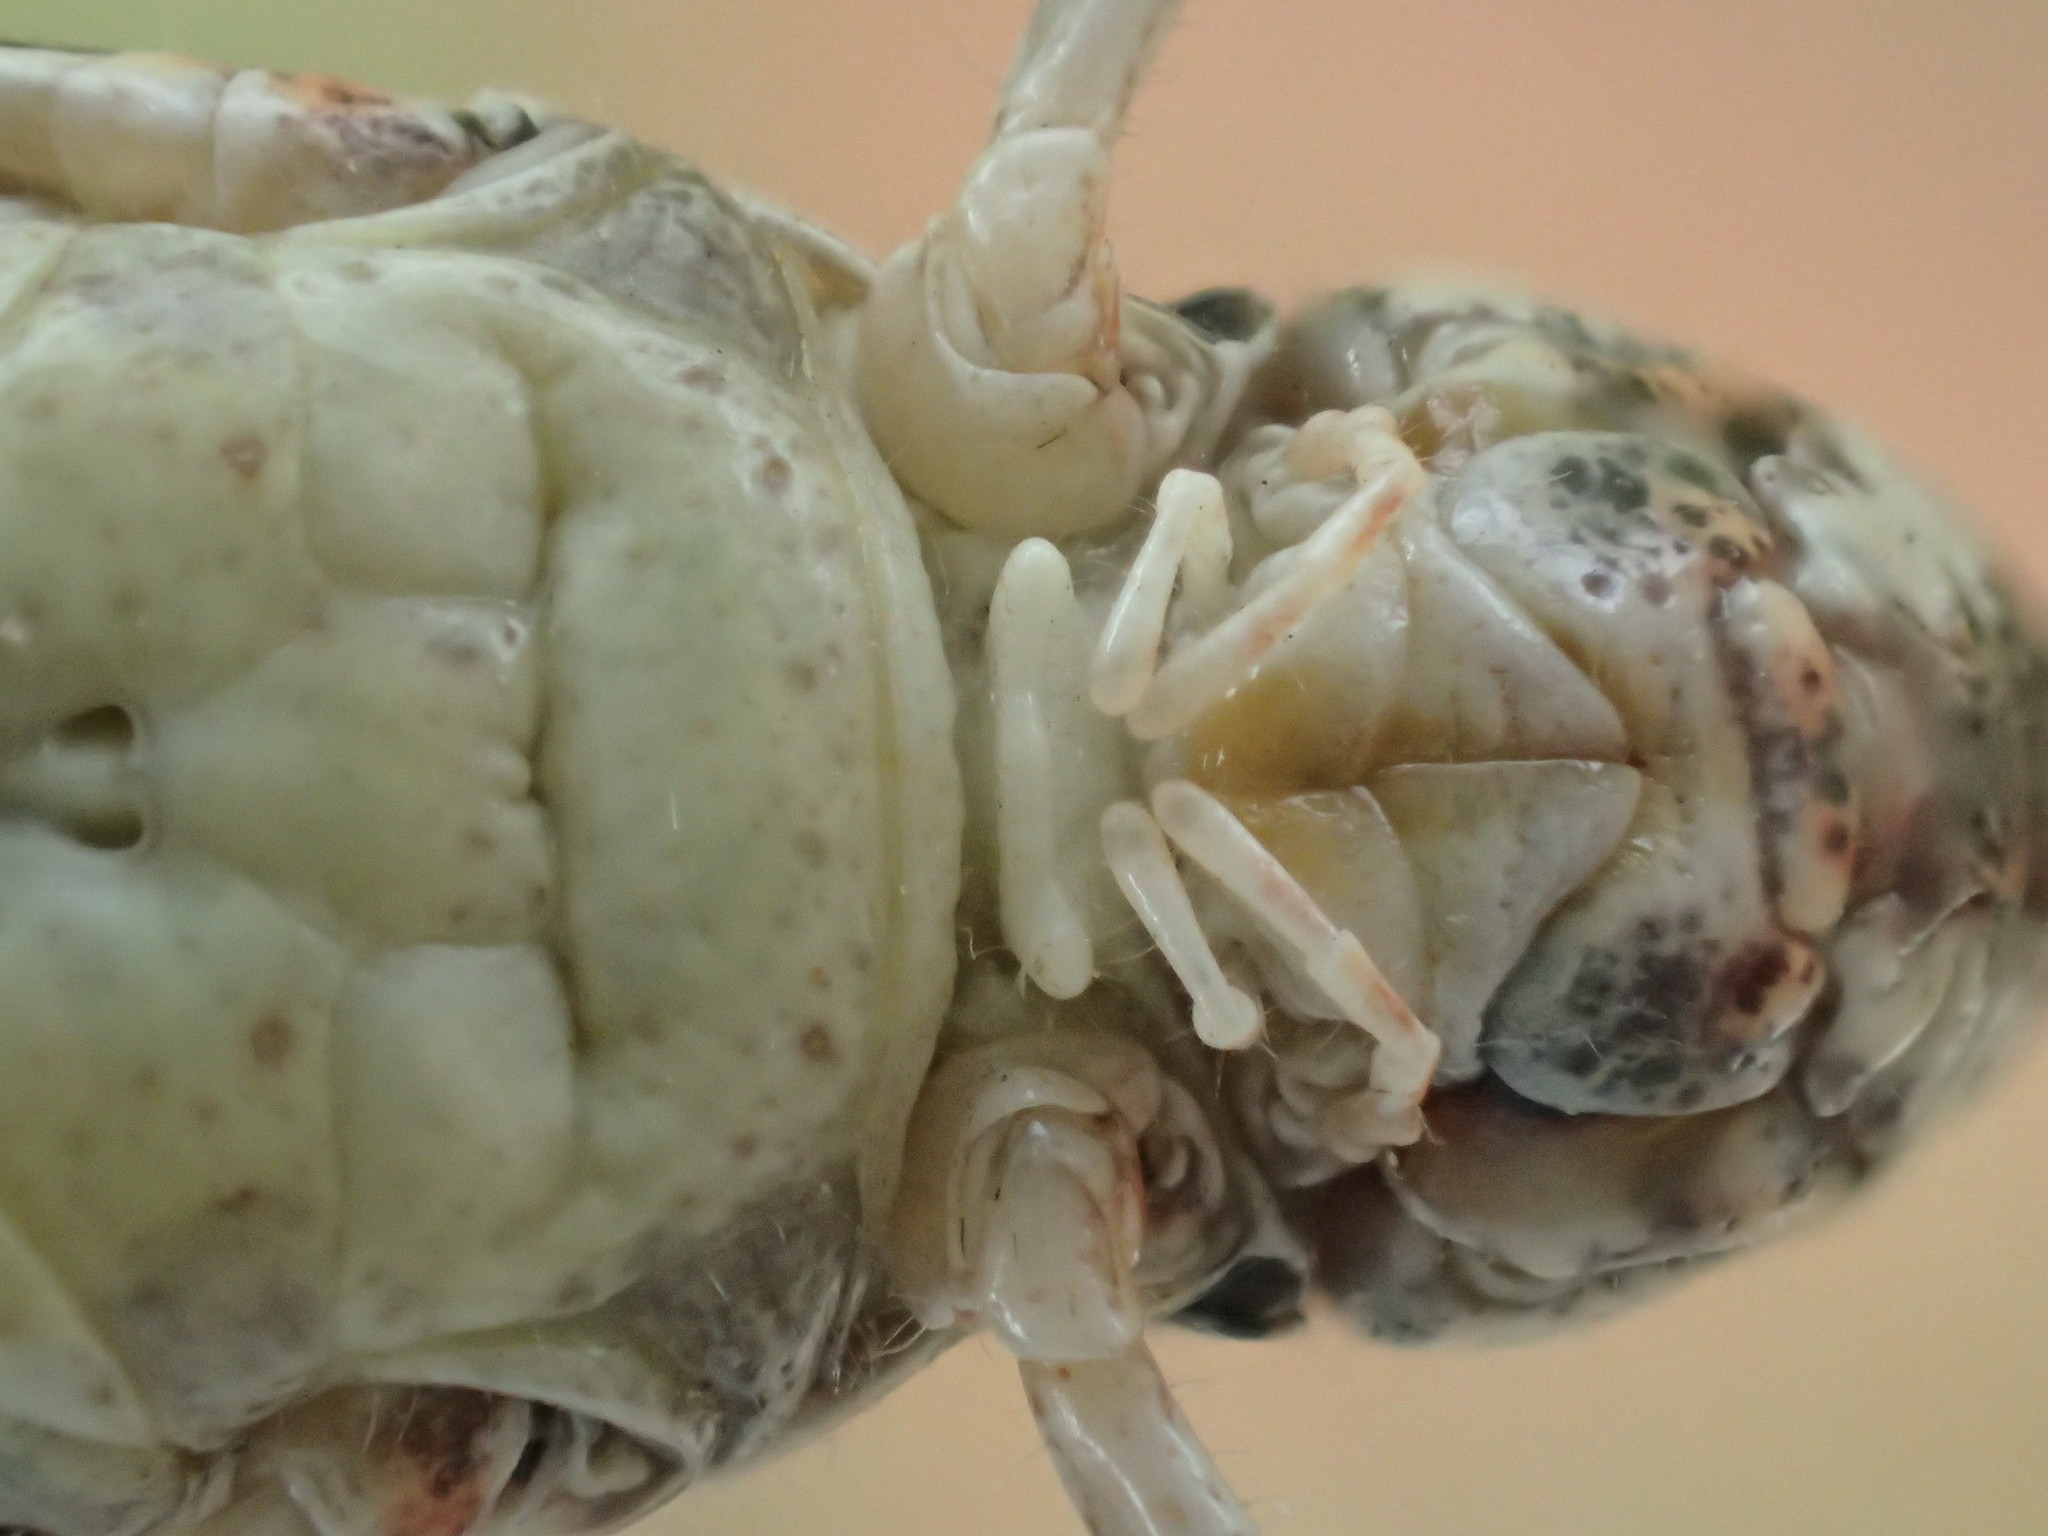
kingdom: Animalia
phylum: Arthropoda
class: Insecta
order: Orthoptera
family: Acrididae
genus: Azelota
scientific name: Azelota
